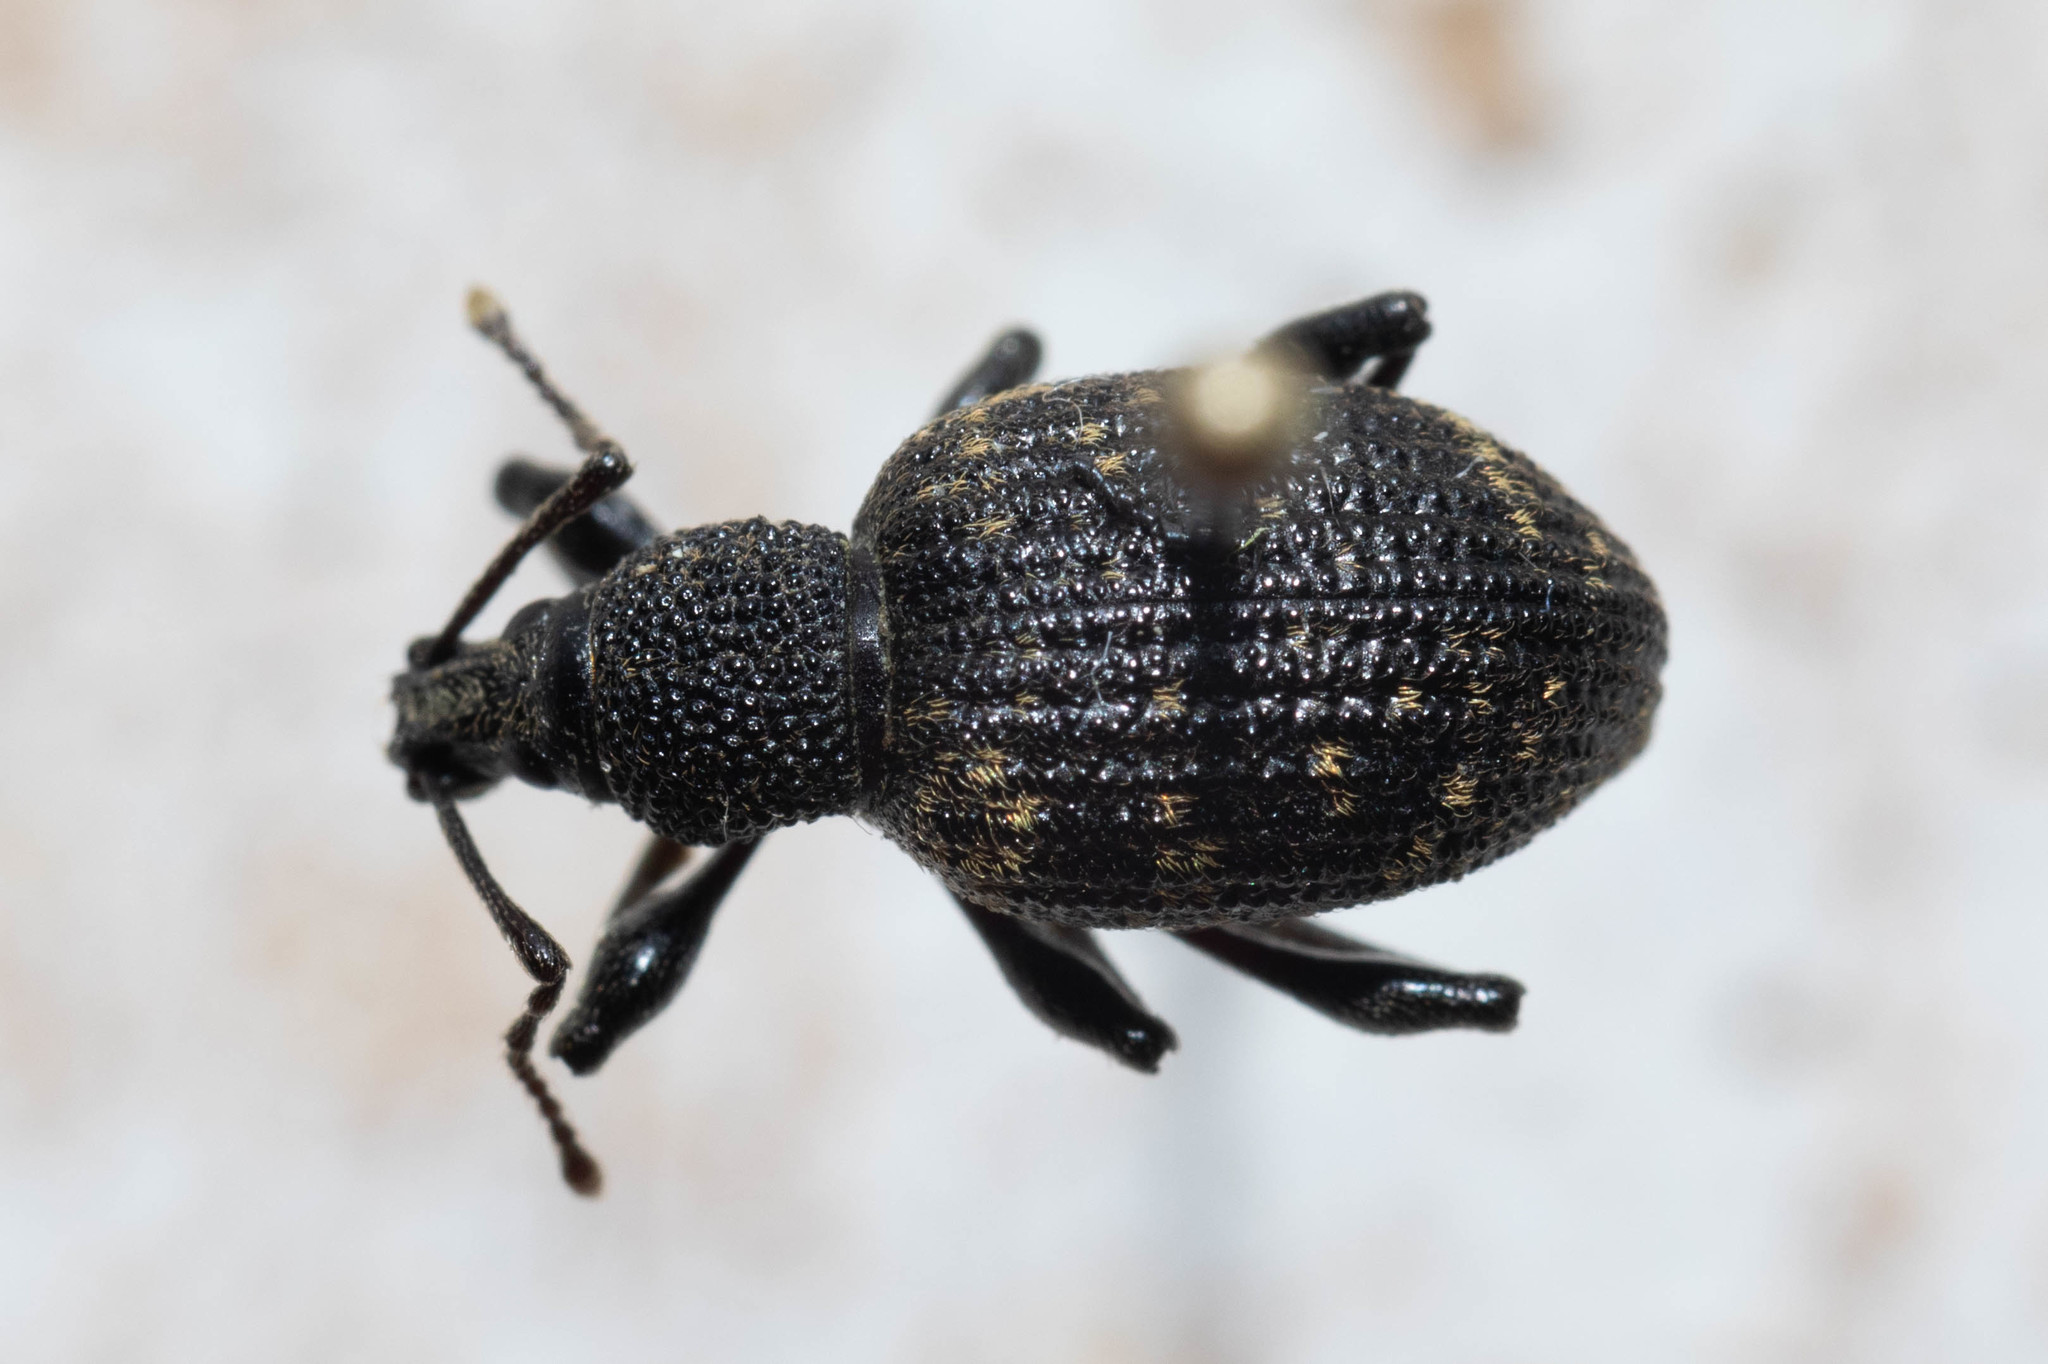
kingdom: Animalia
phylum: Arthropoda
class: Insecta
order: Coleoptera
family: Curculionidae
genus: Otiorhynchus
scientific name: Otiorhynchus sulcatus
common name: Black vine weevil
